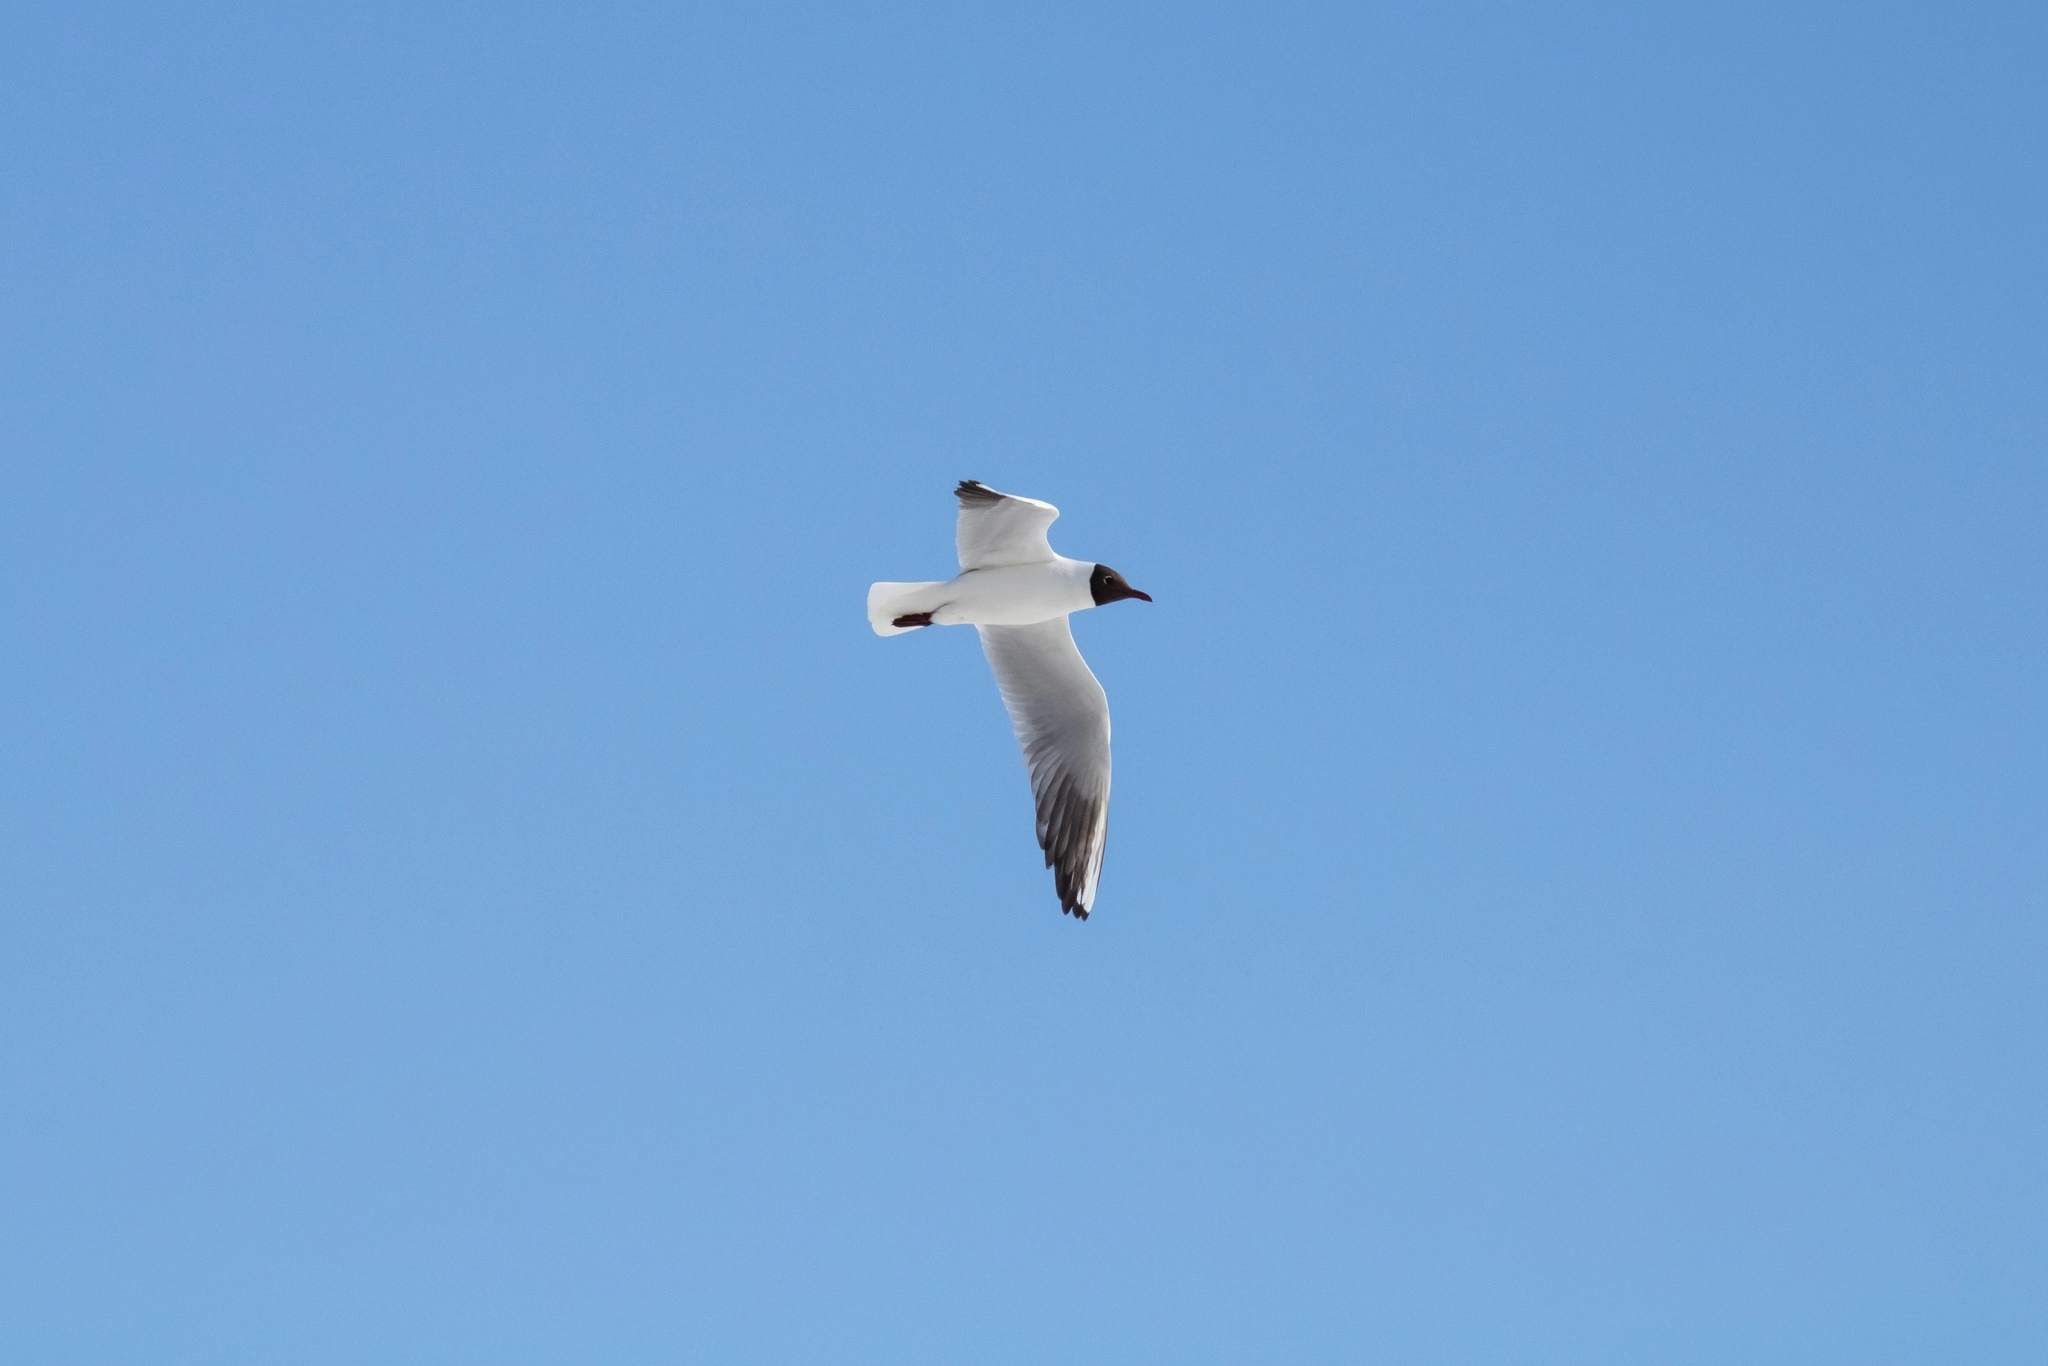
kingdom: Animalia
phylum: Chordata
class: Aves
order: Charadriiformes
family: Laridae
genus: Chroicocephalus
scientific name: Chroicocephalus ridibundus
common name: Black-headed gull
